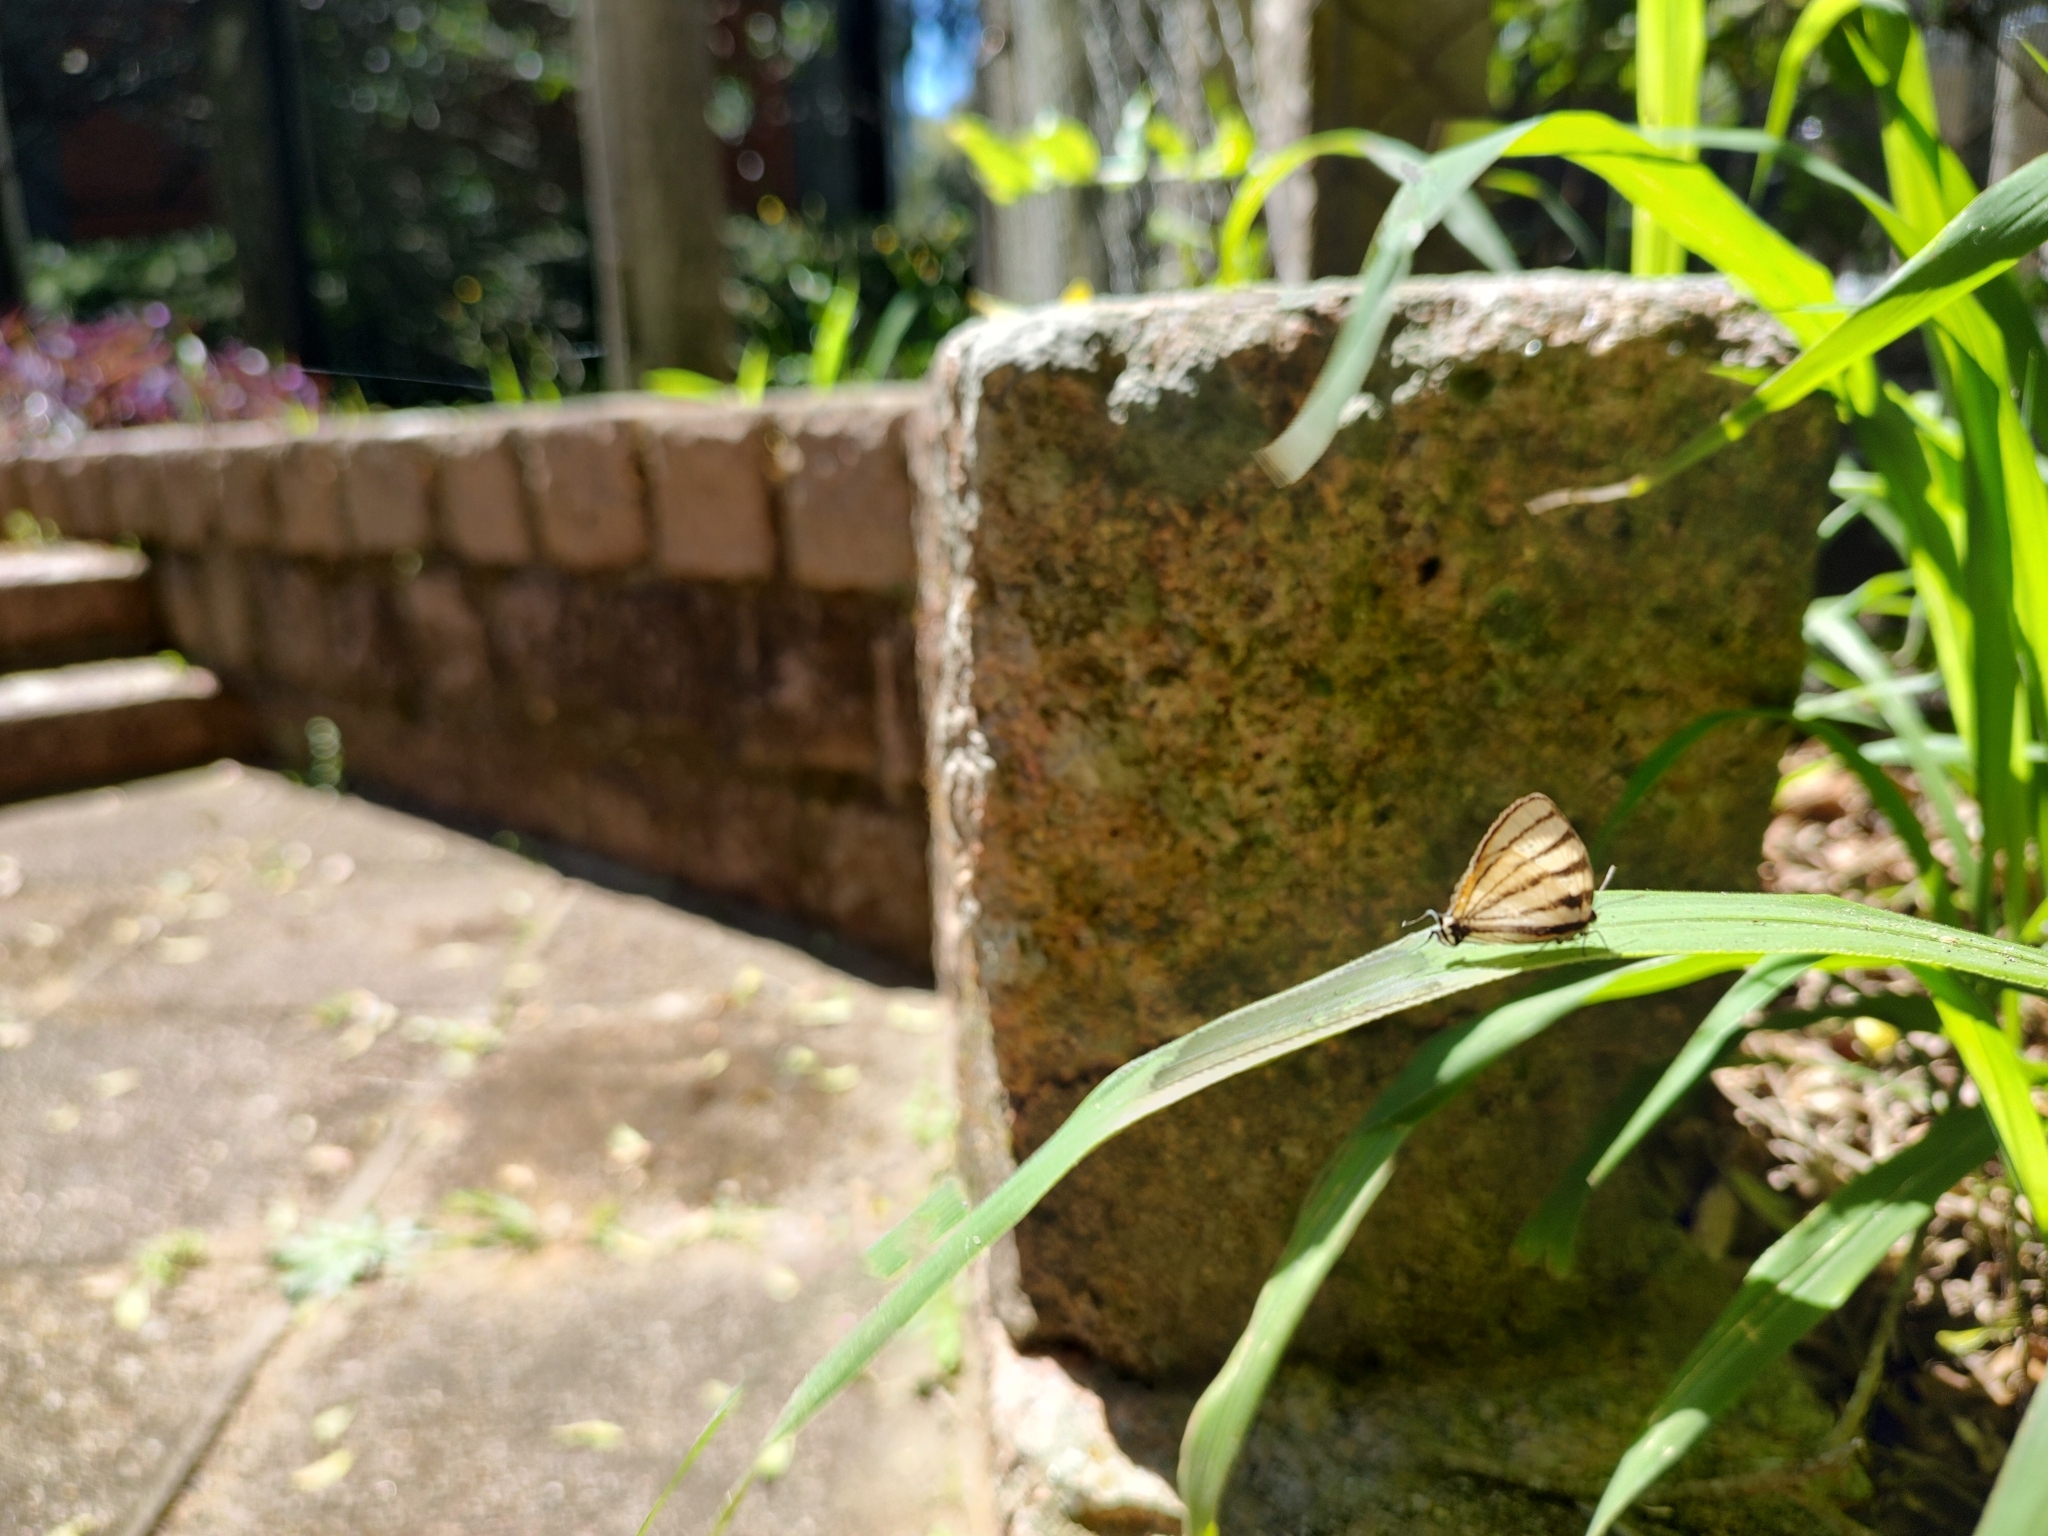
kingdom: Animalia
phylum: Arthropoda
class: Insecta
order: Lepidoptera
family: Lycaenidae
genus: Arawacus
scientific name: Arawacus separata
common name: Separated stripestreak
